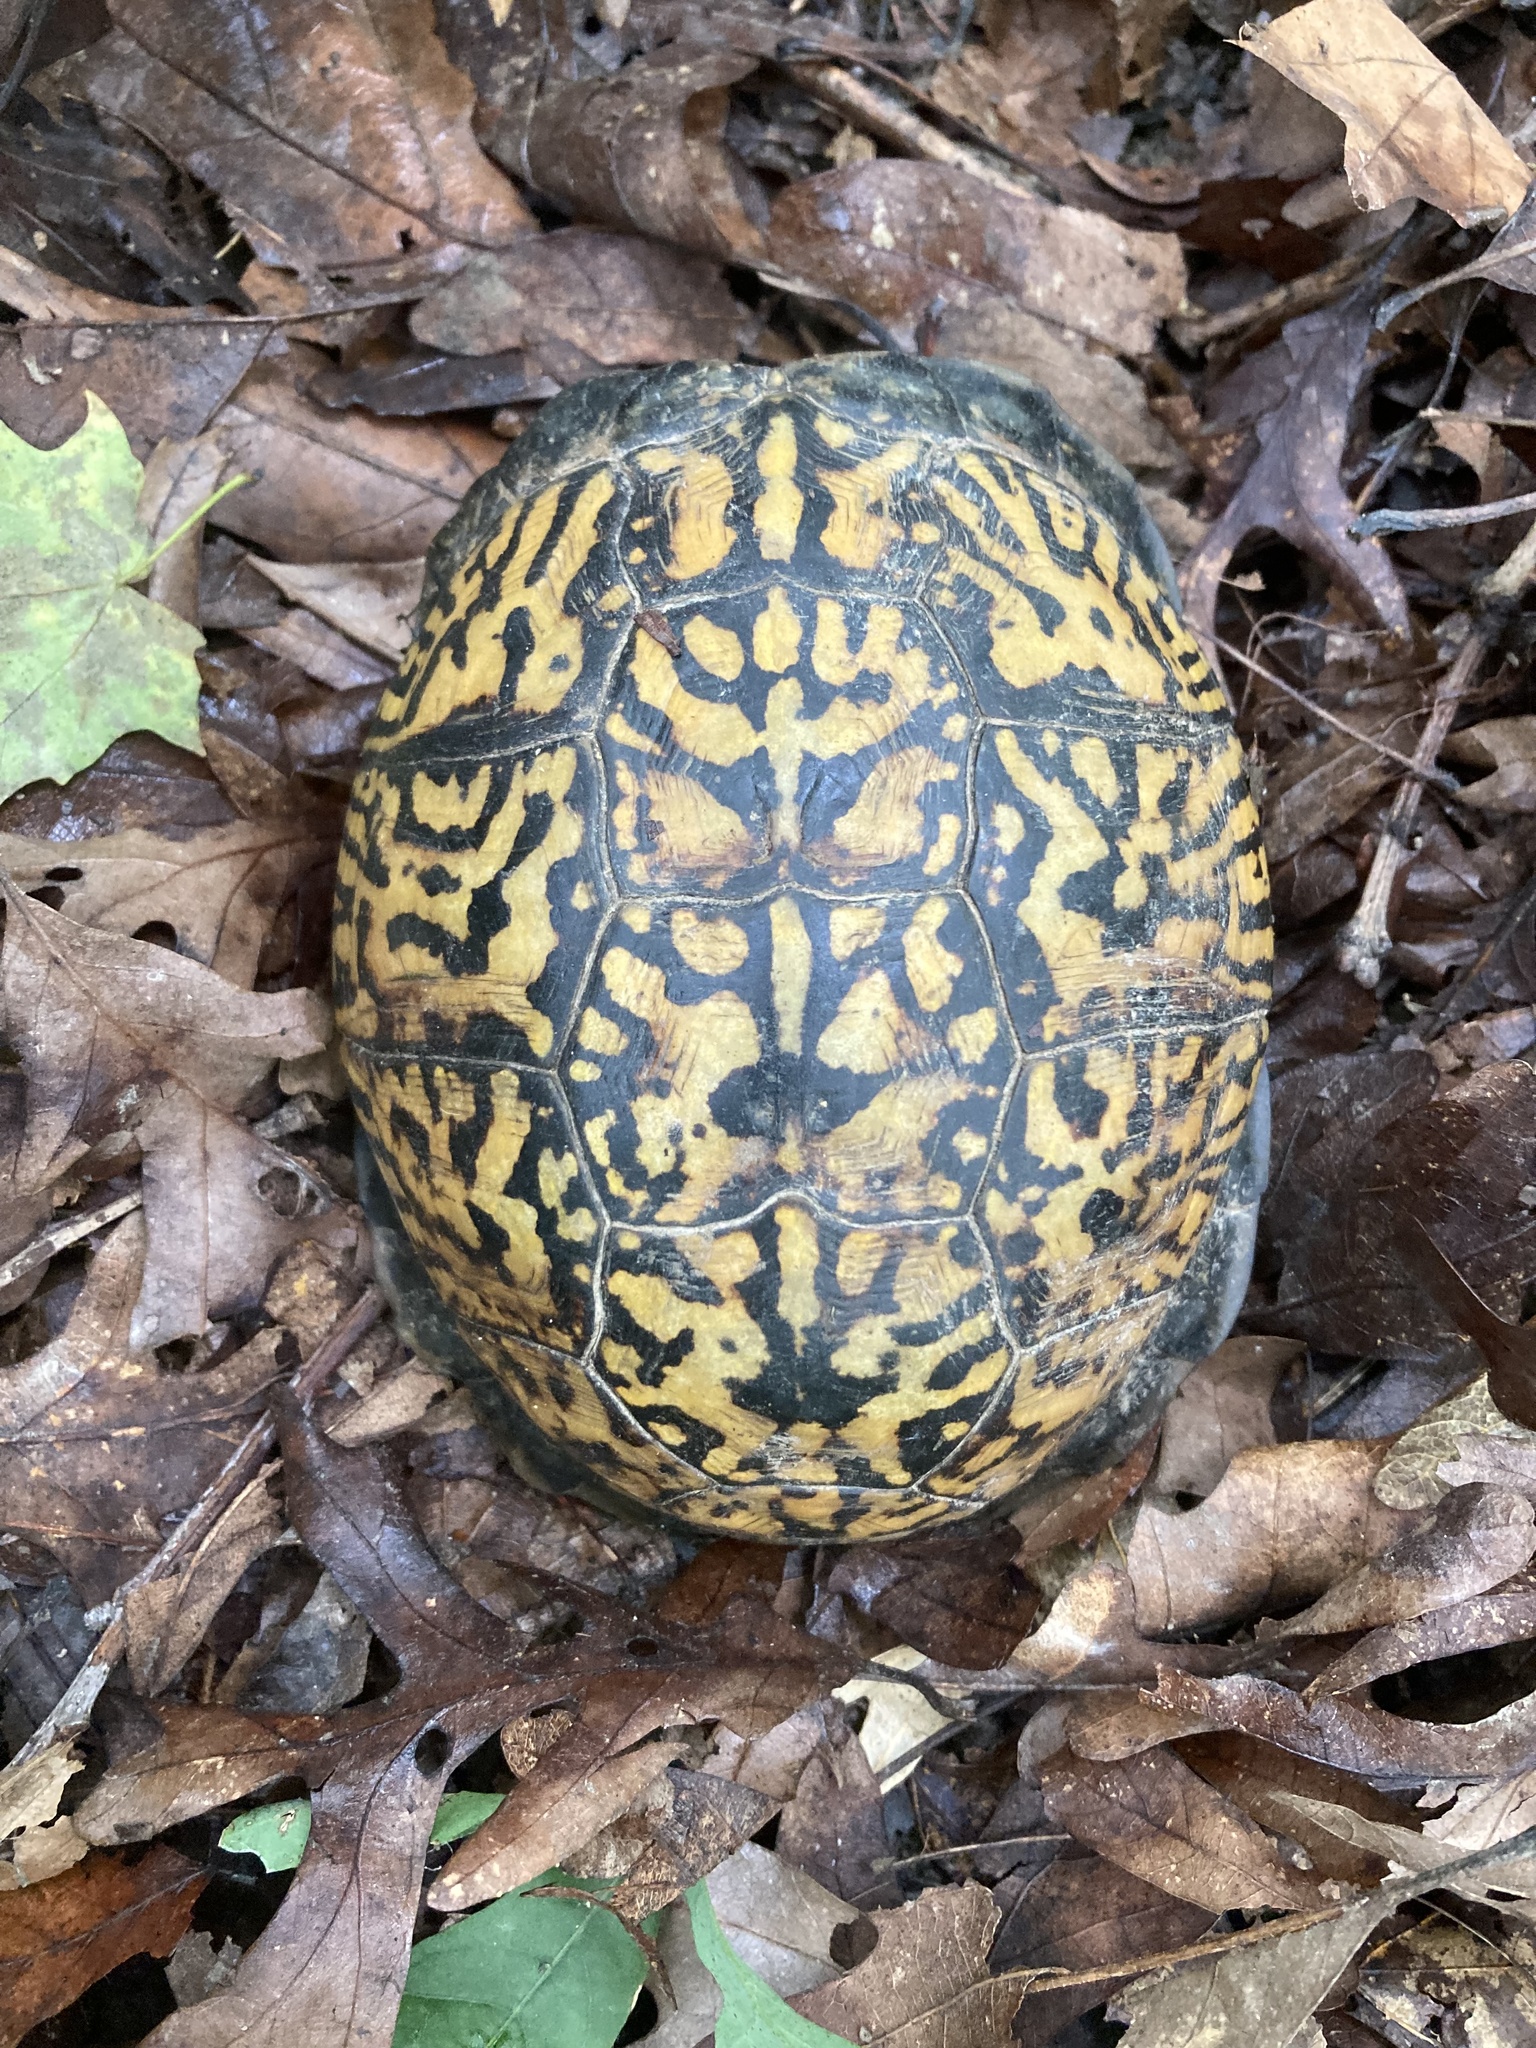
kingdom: Animalia
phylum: Chordata
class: Testudines
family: Emydidae
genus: Terrapene
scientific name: Terrapene carolina
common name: Common box turtle
